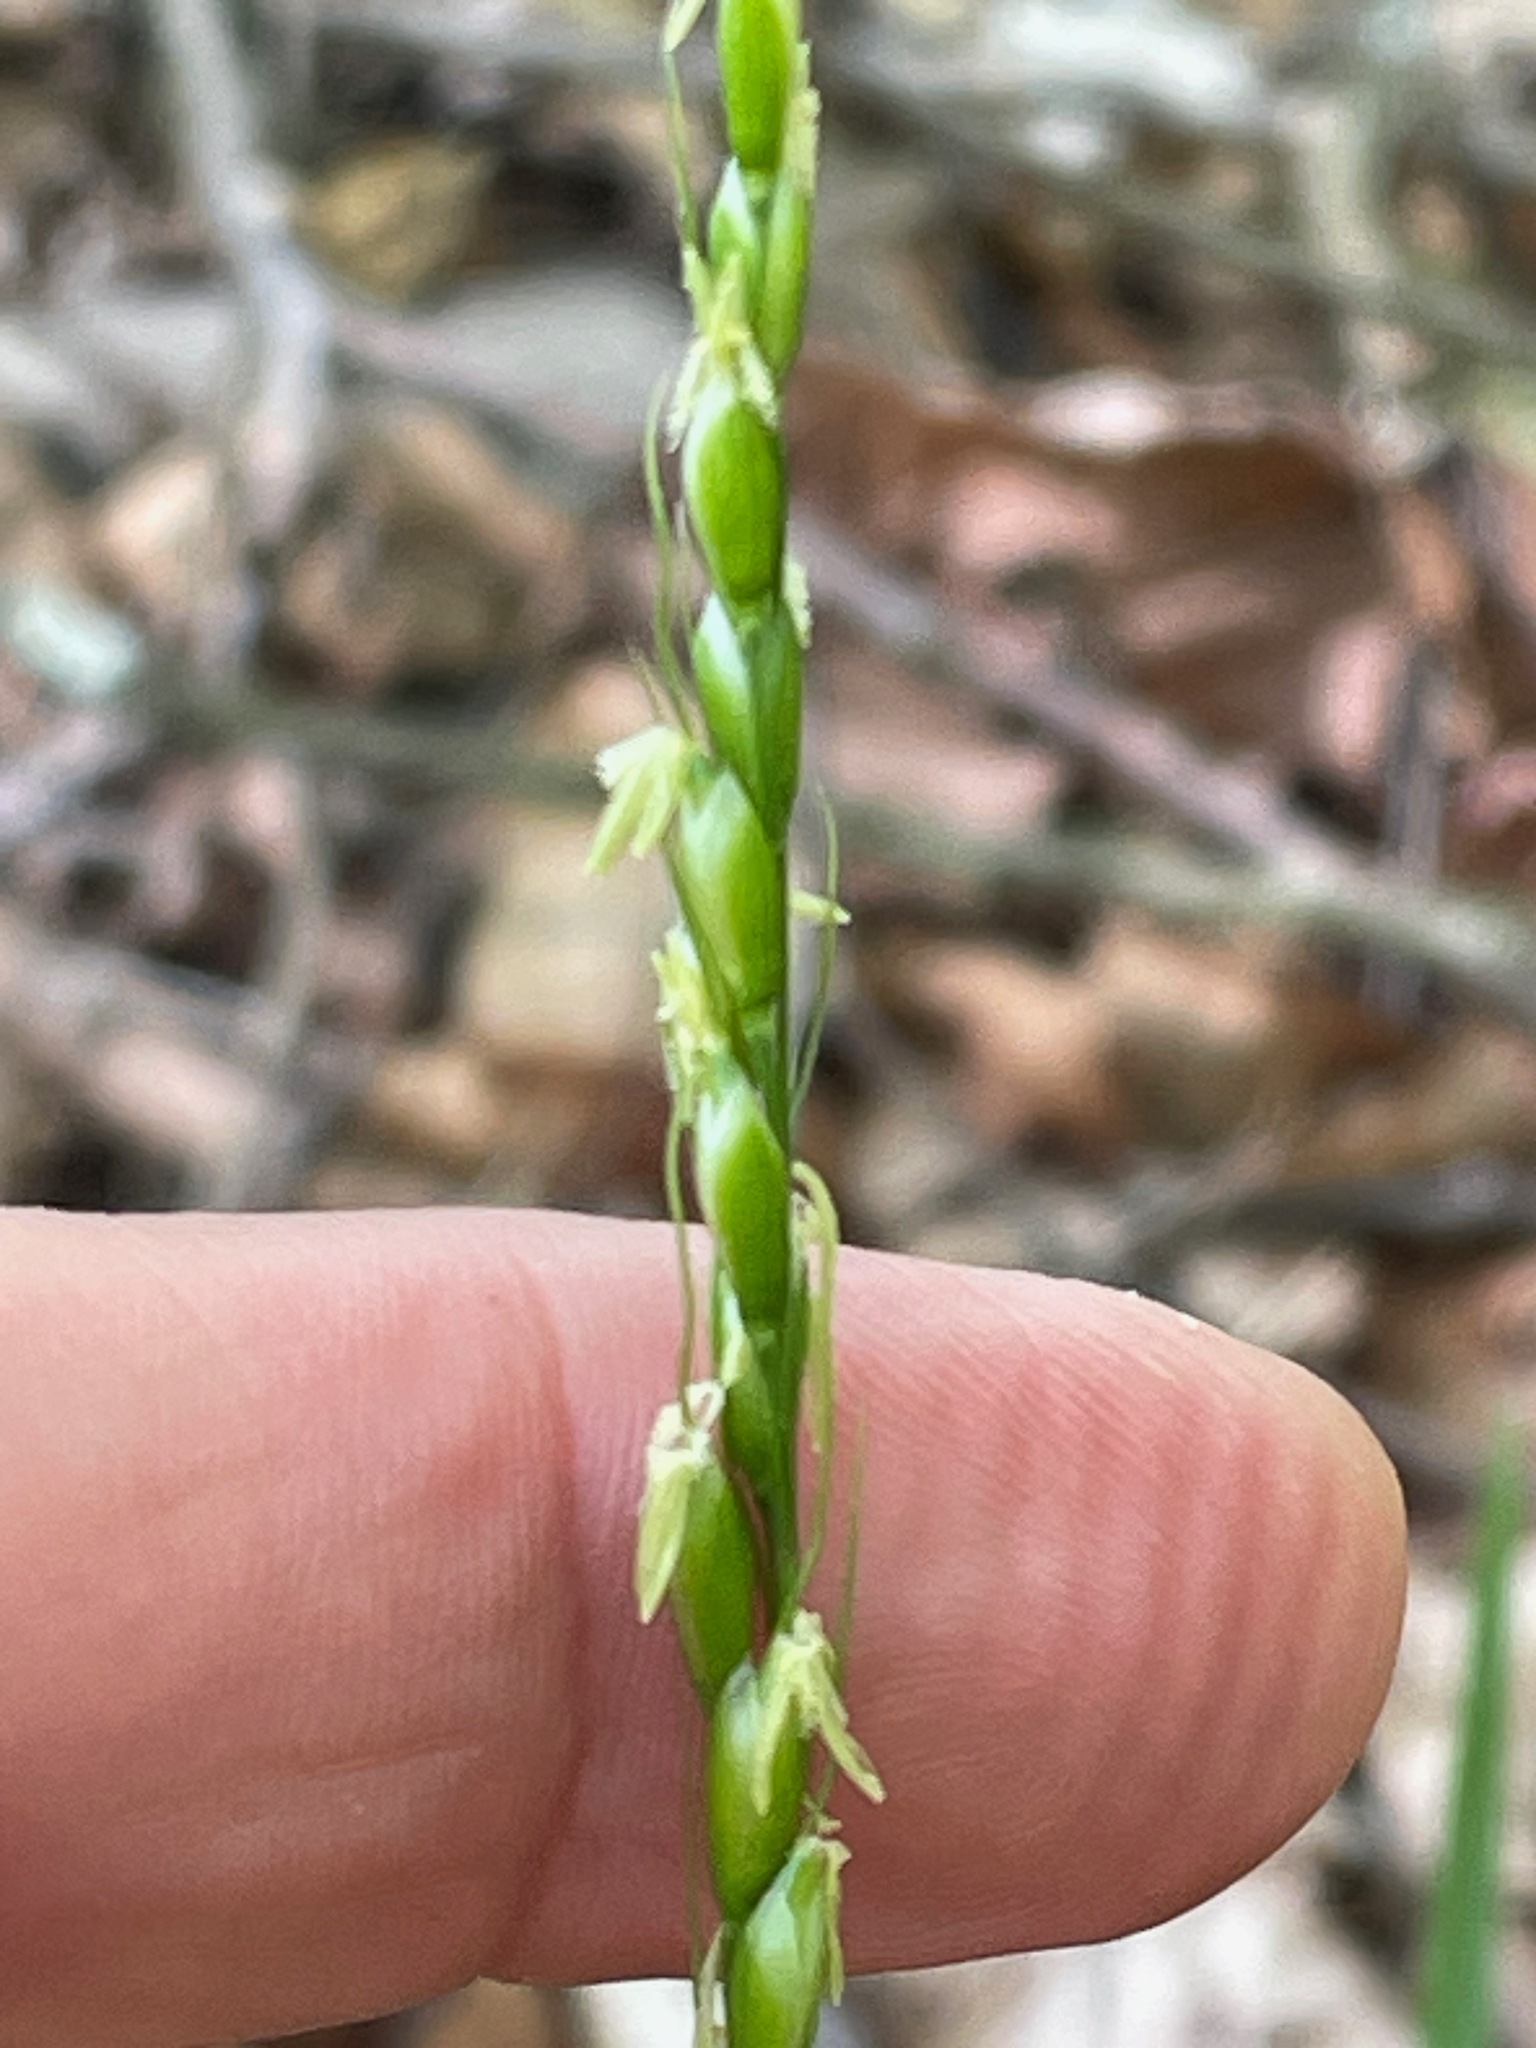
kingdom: Plantae
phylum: Tracheophyta
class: Liliopsida
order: Poales
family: Poaceae
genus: Oryzopsis
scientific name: Oryzopsis asperifolia
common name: Rough-leaved mountain rice
